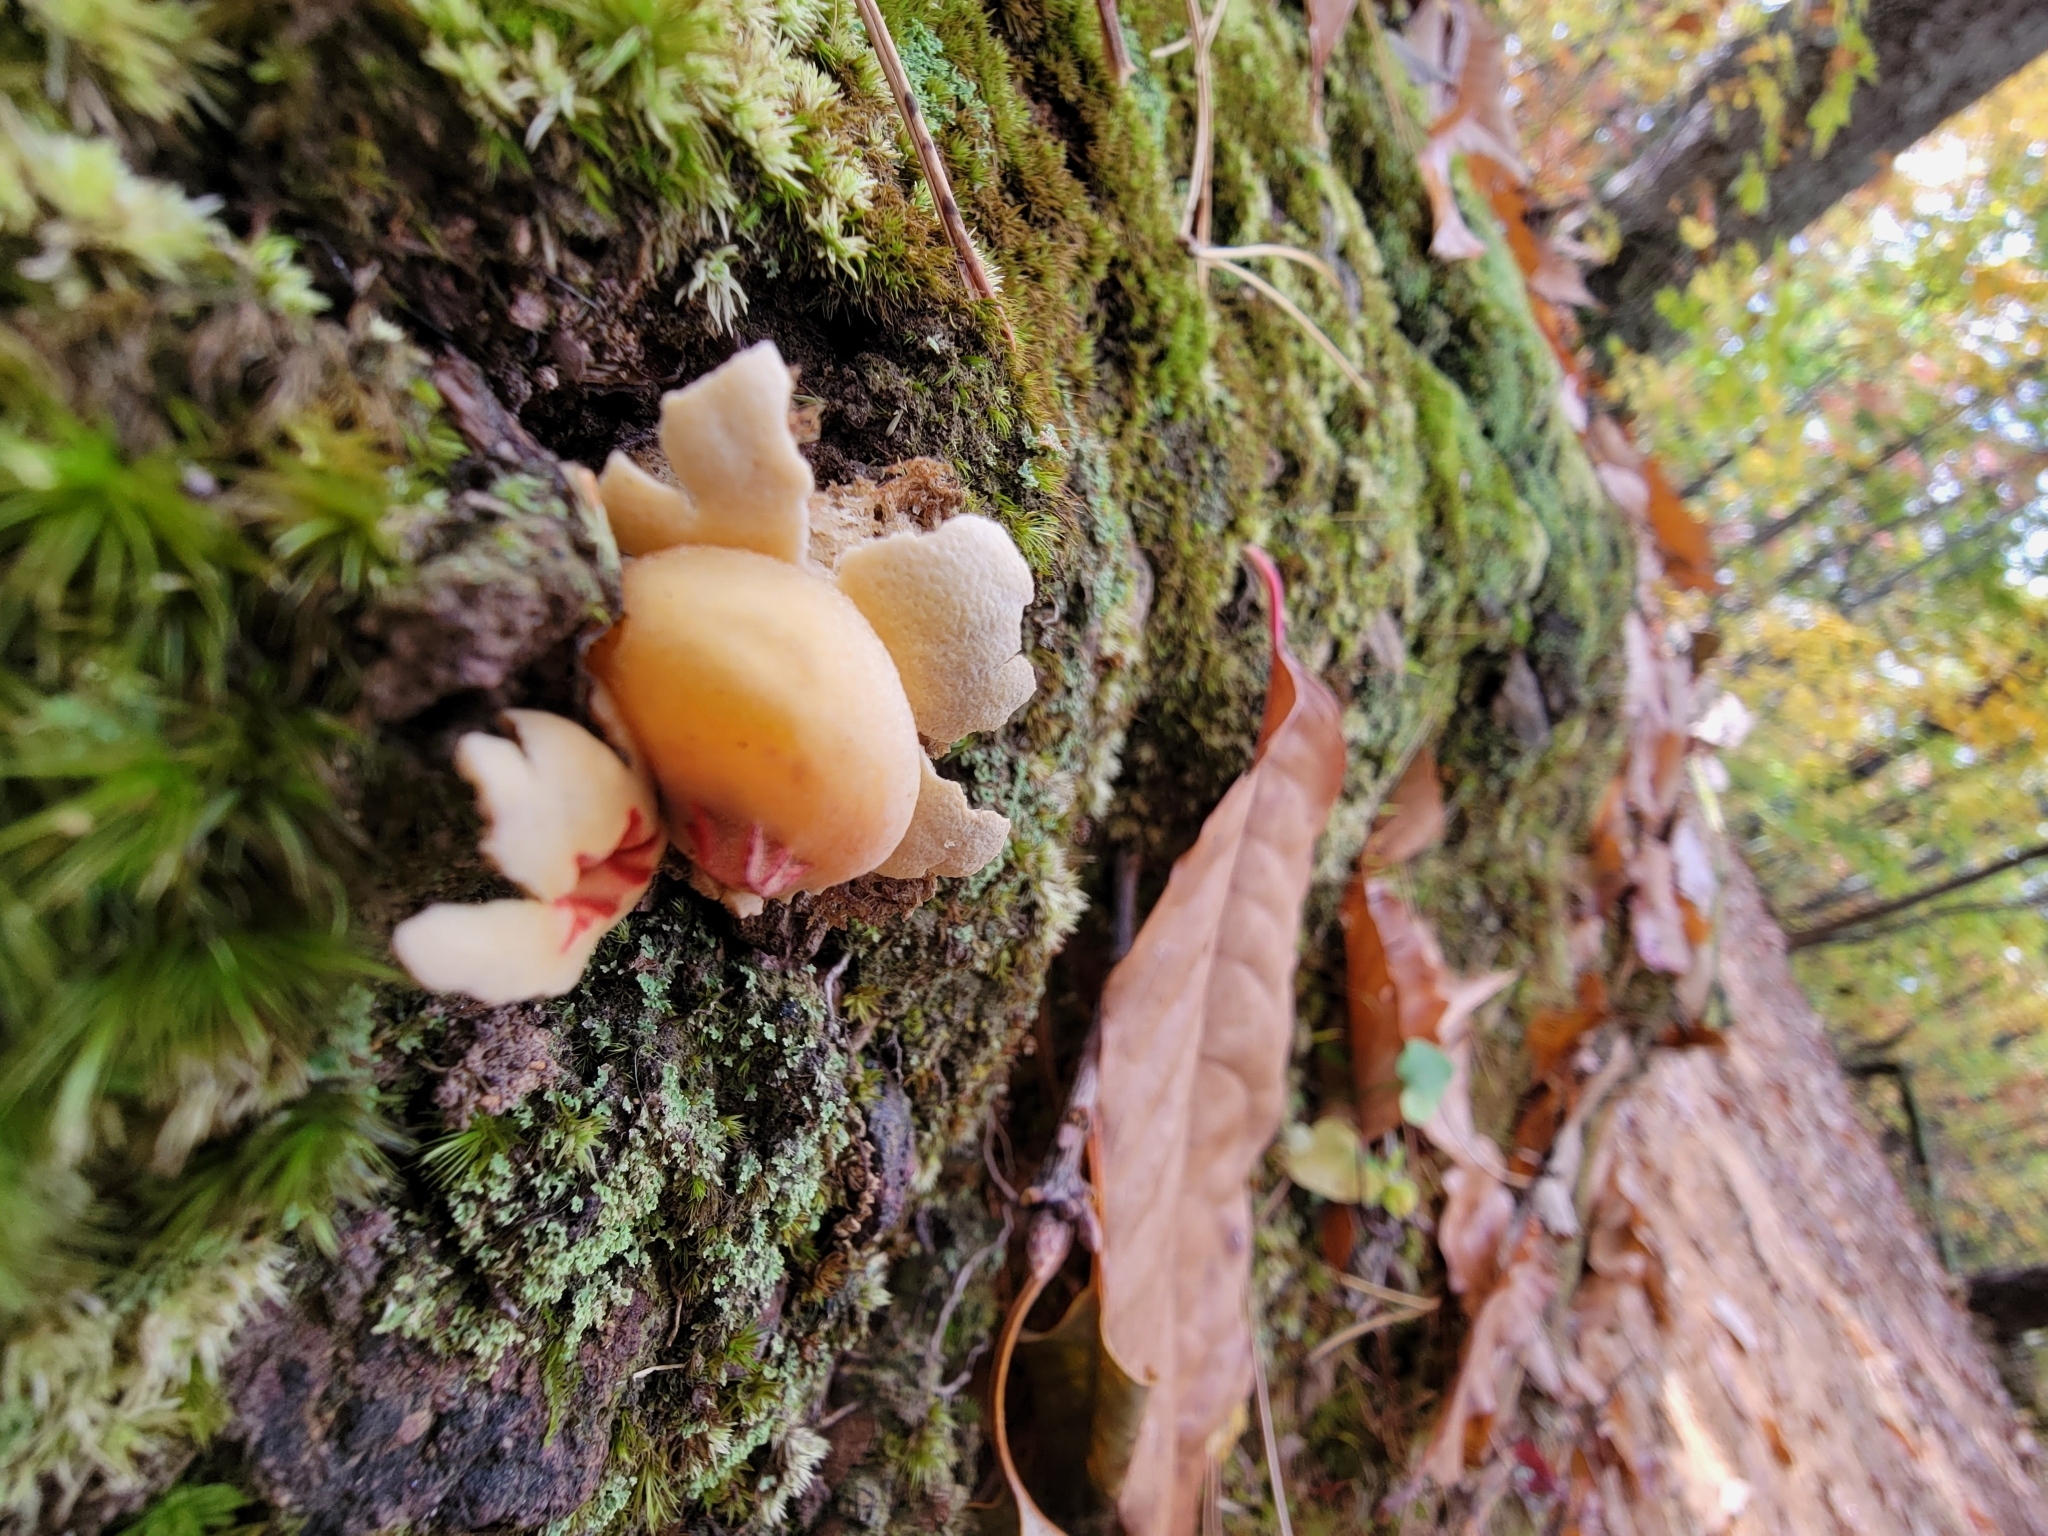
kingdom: Fungi
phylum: Basidiomycota
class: Agaricomycetes
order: Boletales
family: Calostomataceae
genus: Calostoma
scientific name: Calostoma lutescens
